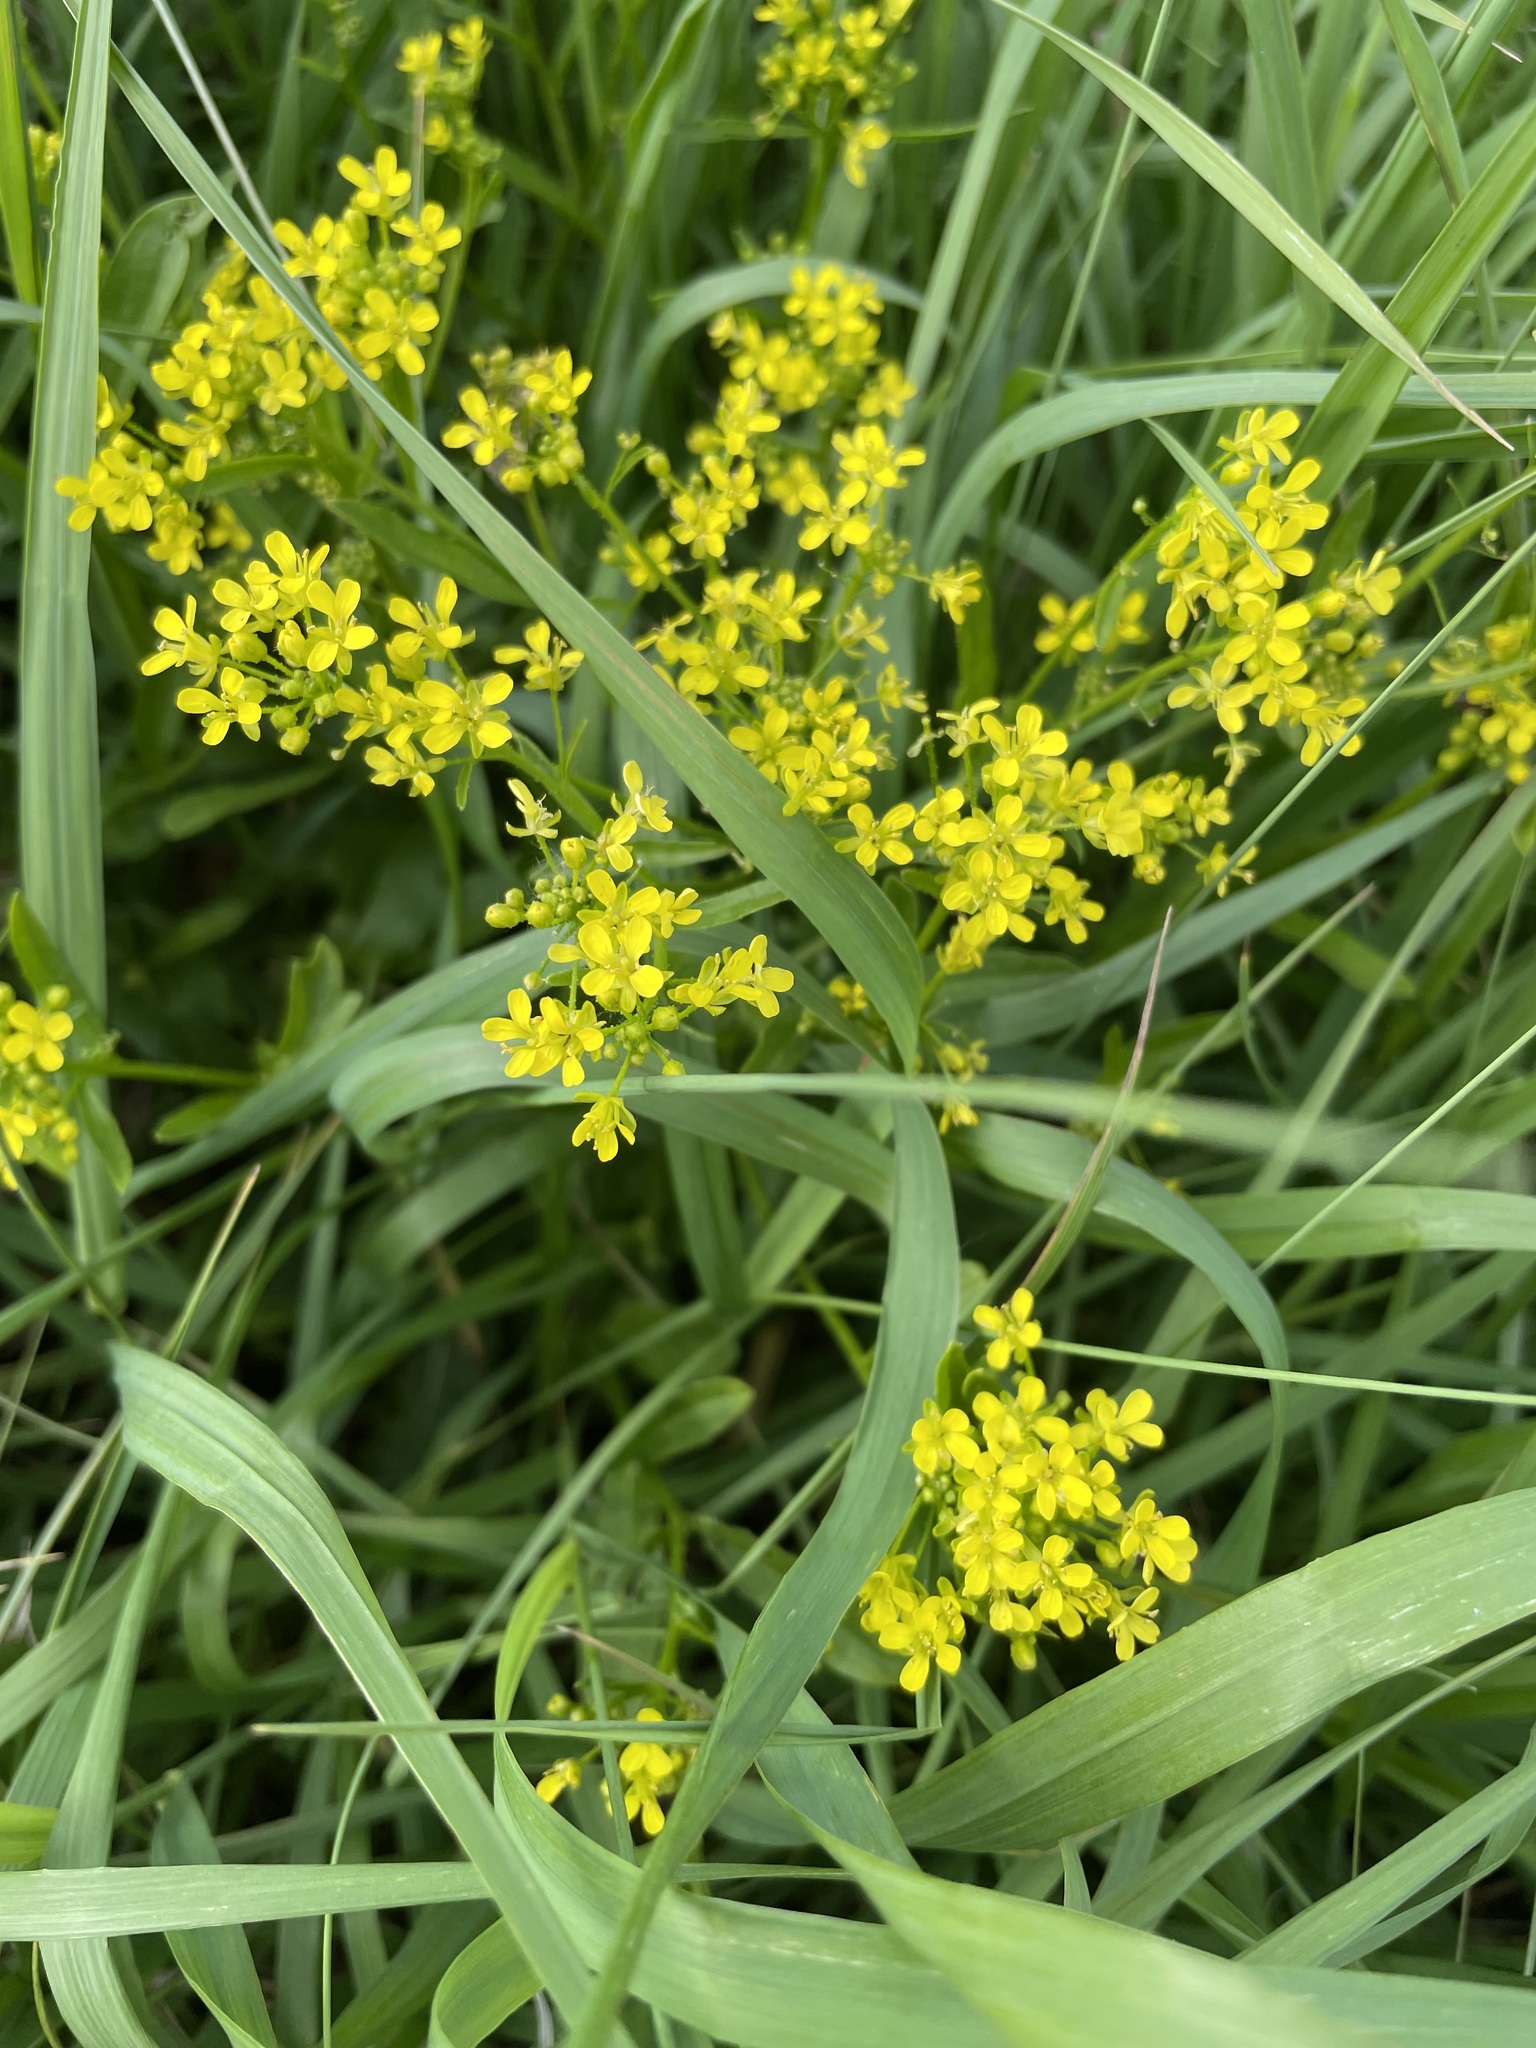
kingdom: Plantae
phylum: Tracheophyta
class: Magnoliopsida
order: Brassicales
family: Brassicaceae
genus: Bunias
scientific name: Bunias orientalis
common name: Warty-cabbage
